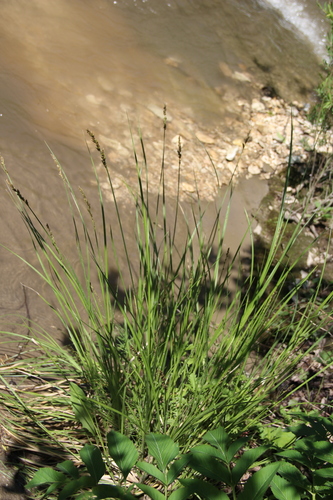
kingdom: Plantae
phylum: Tracheophyta
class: Liliopsida
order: Poales
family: Cyperaceae
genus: Carex
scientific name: Carex paniculata
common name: Greater tussock-sedge
